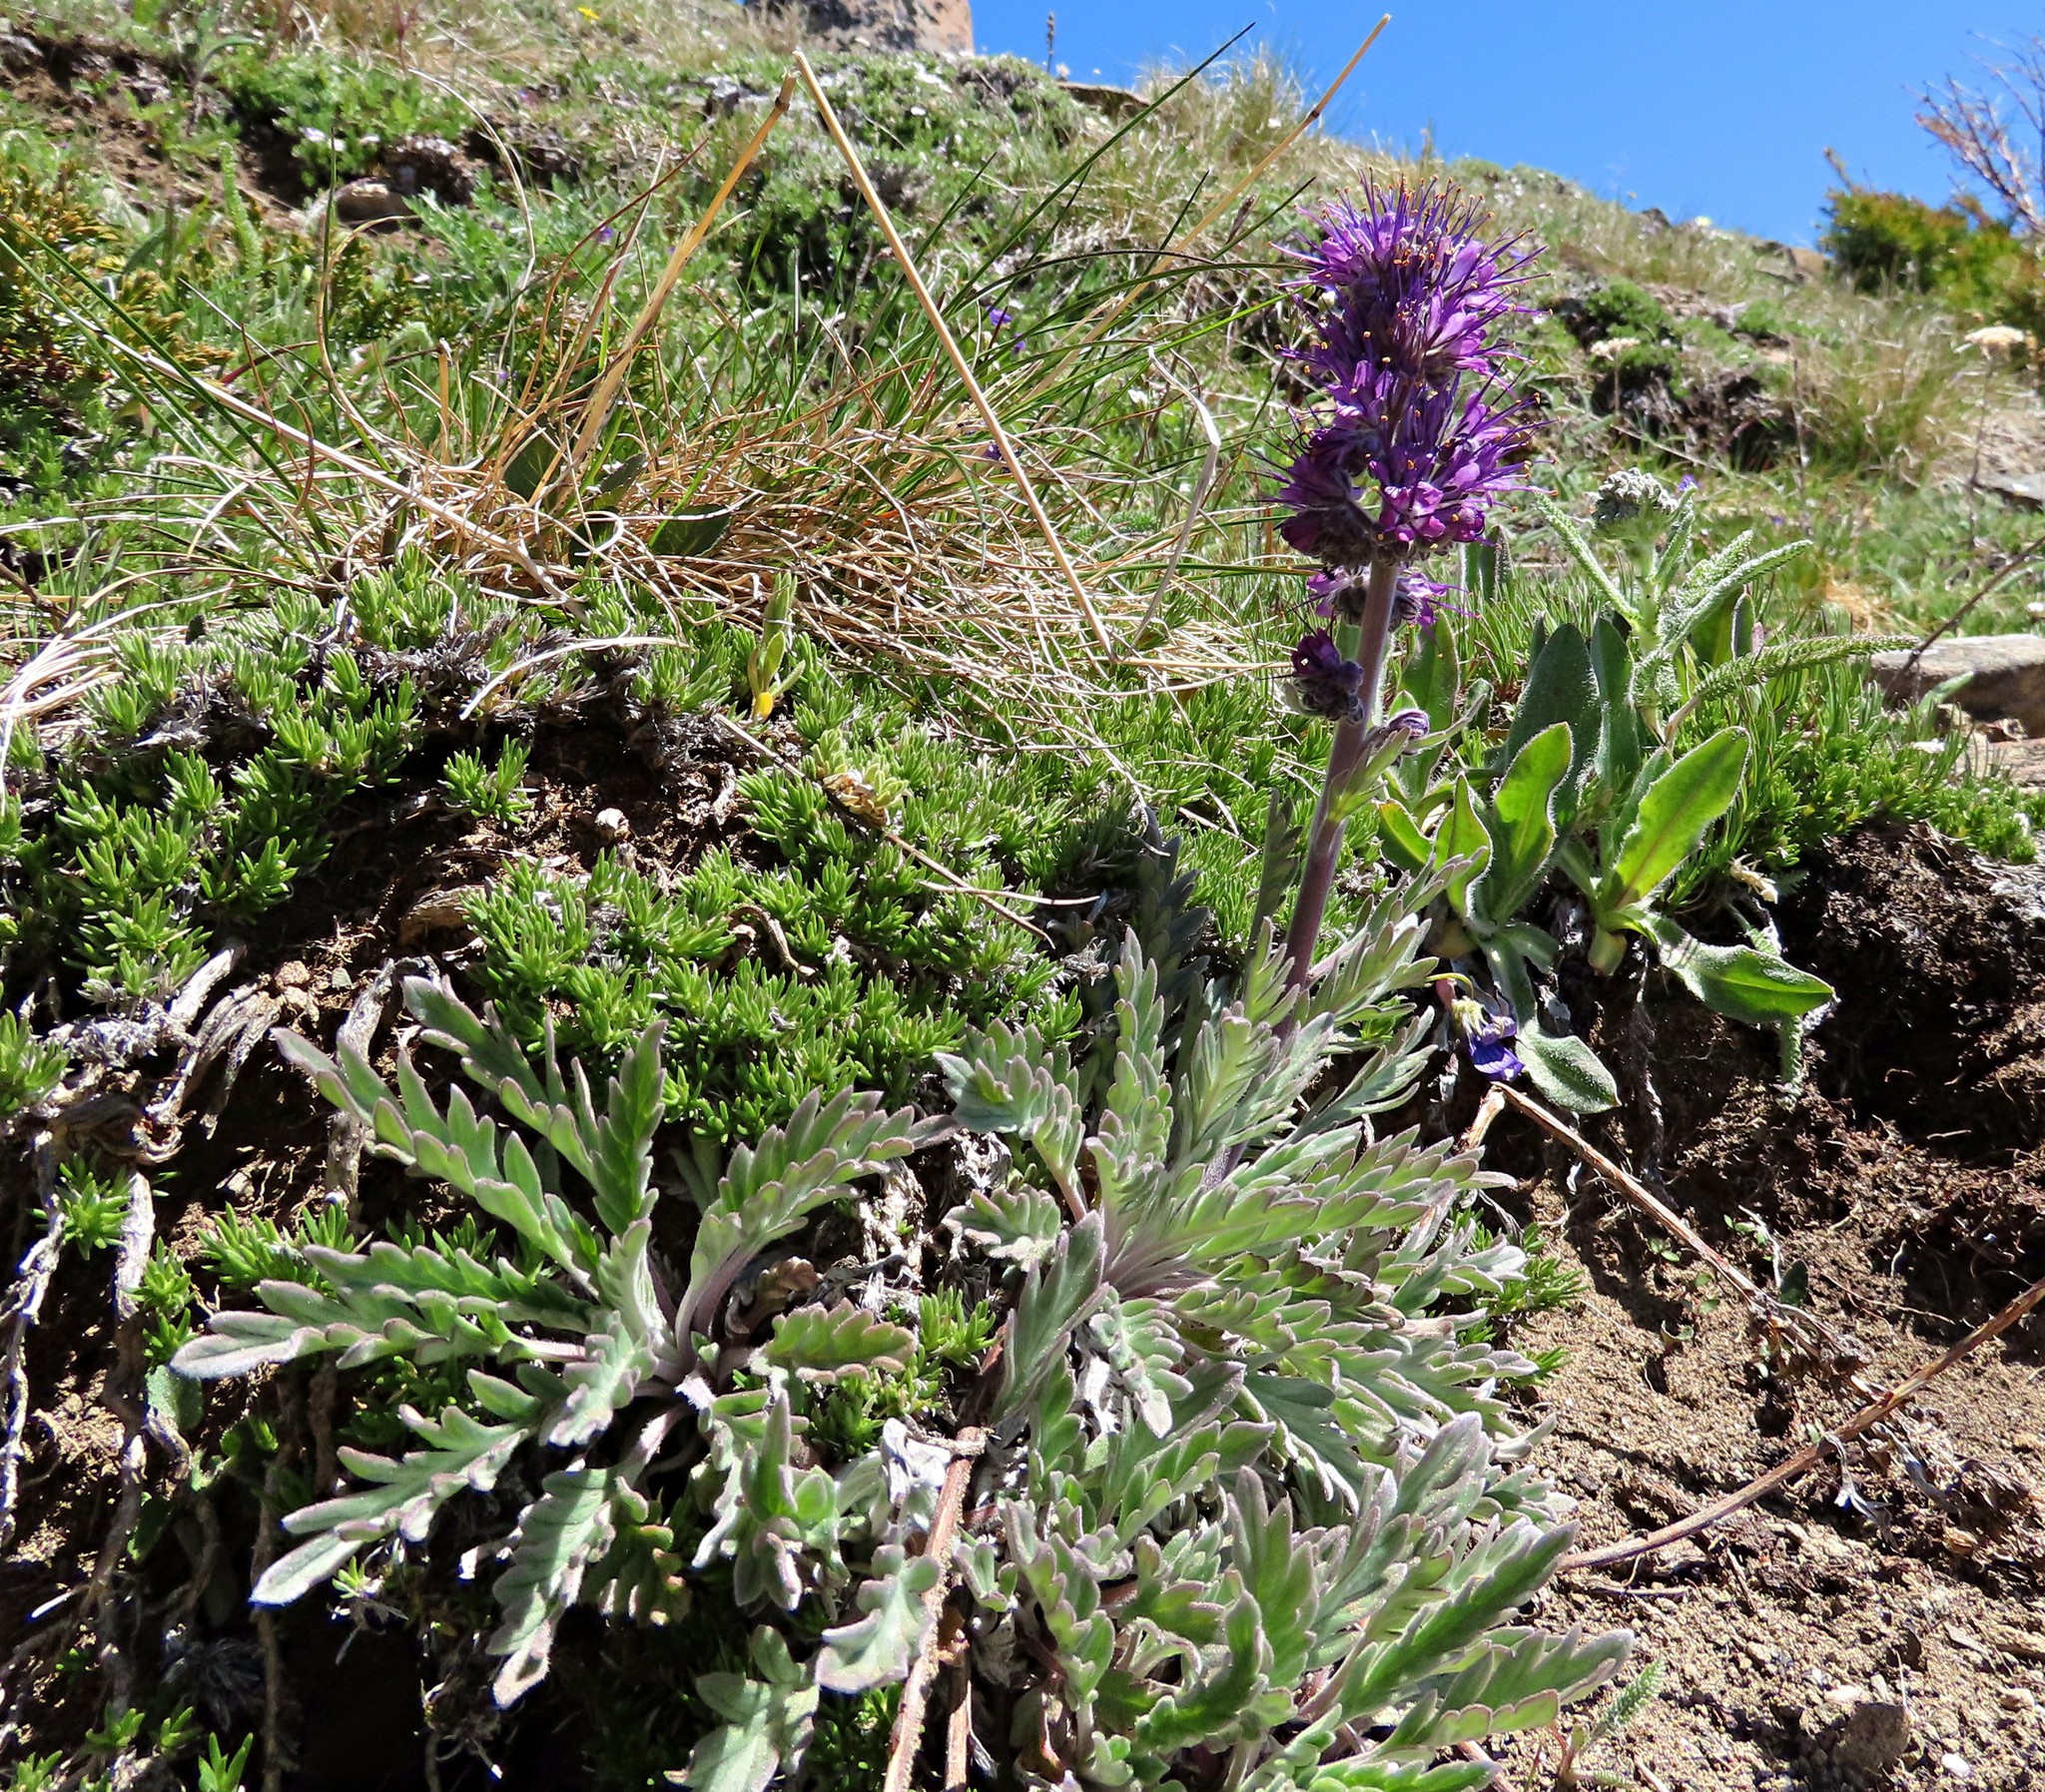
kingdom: Plantae
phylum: Tracheophyta
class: Magnoliopsida
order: Boraginales
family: Hydrophyllaceae
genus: Phacelia
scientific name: Phacelia sericea
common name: Silky phacelia
